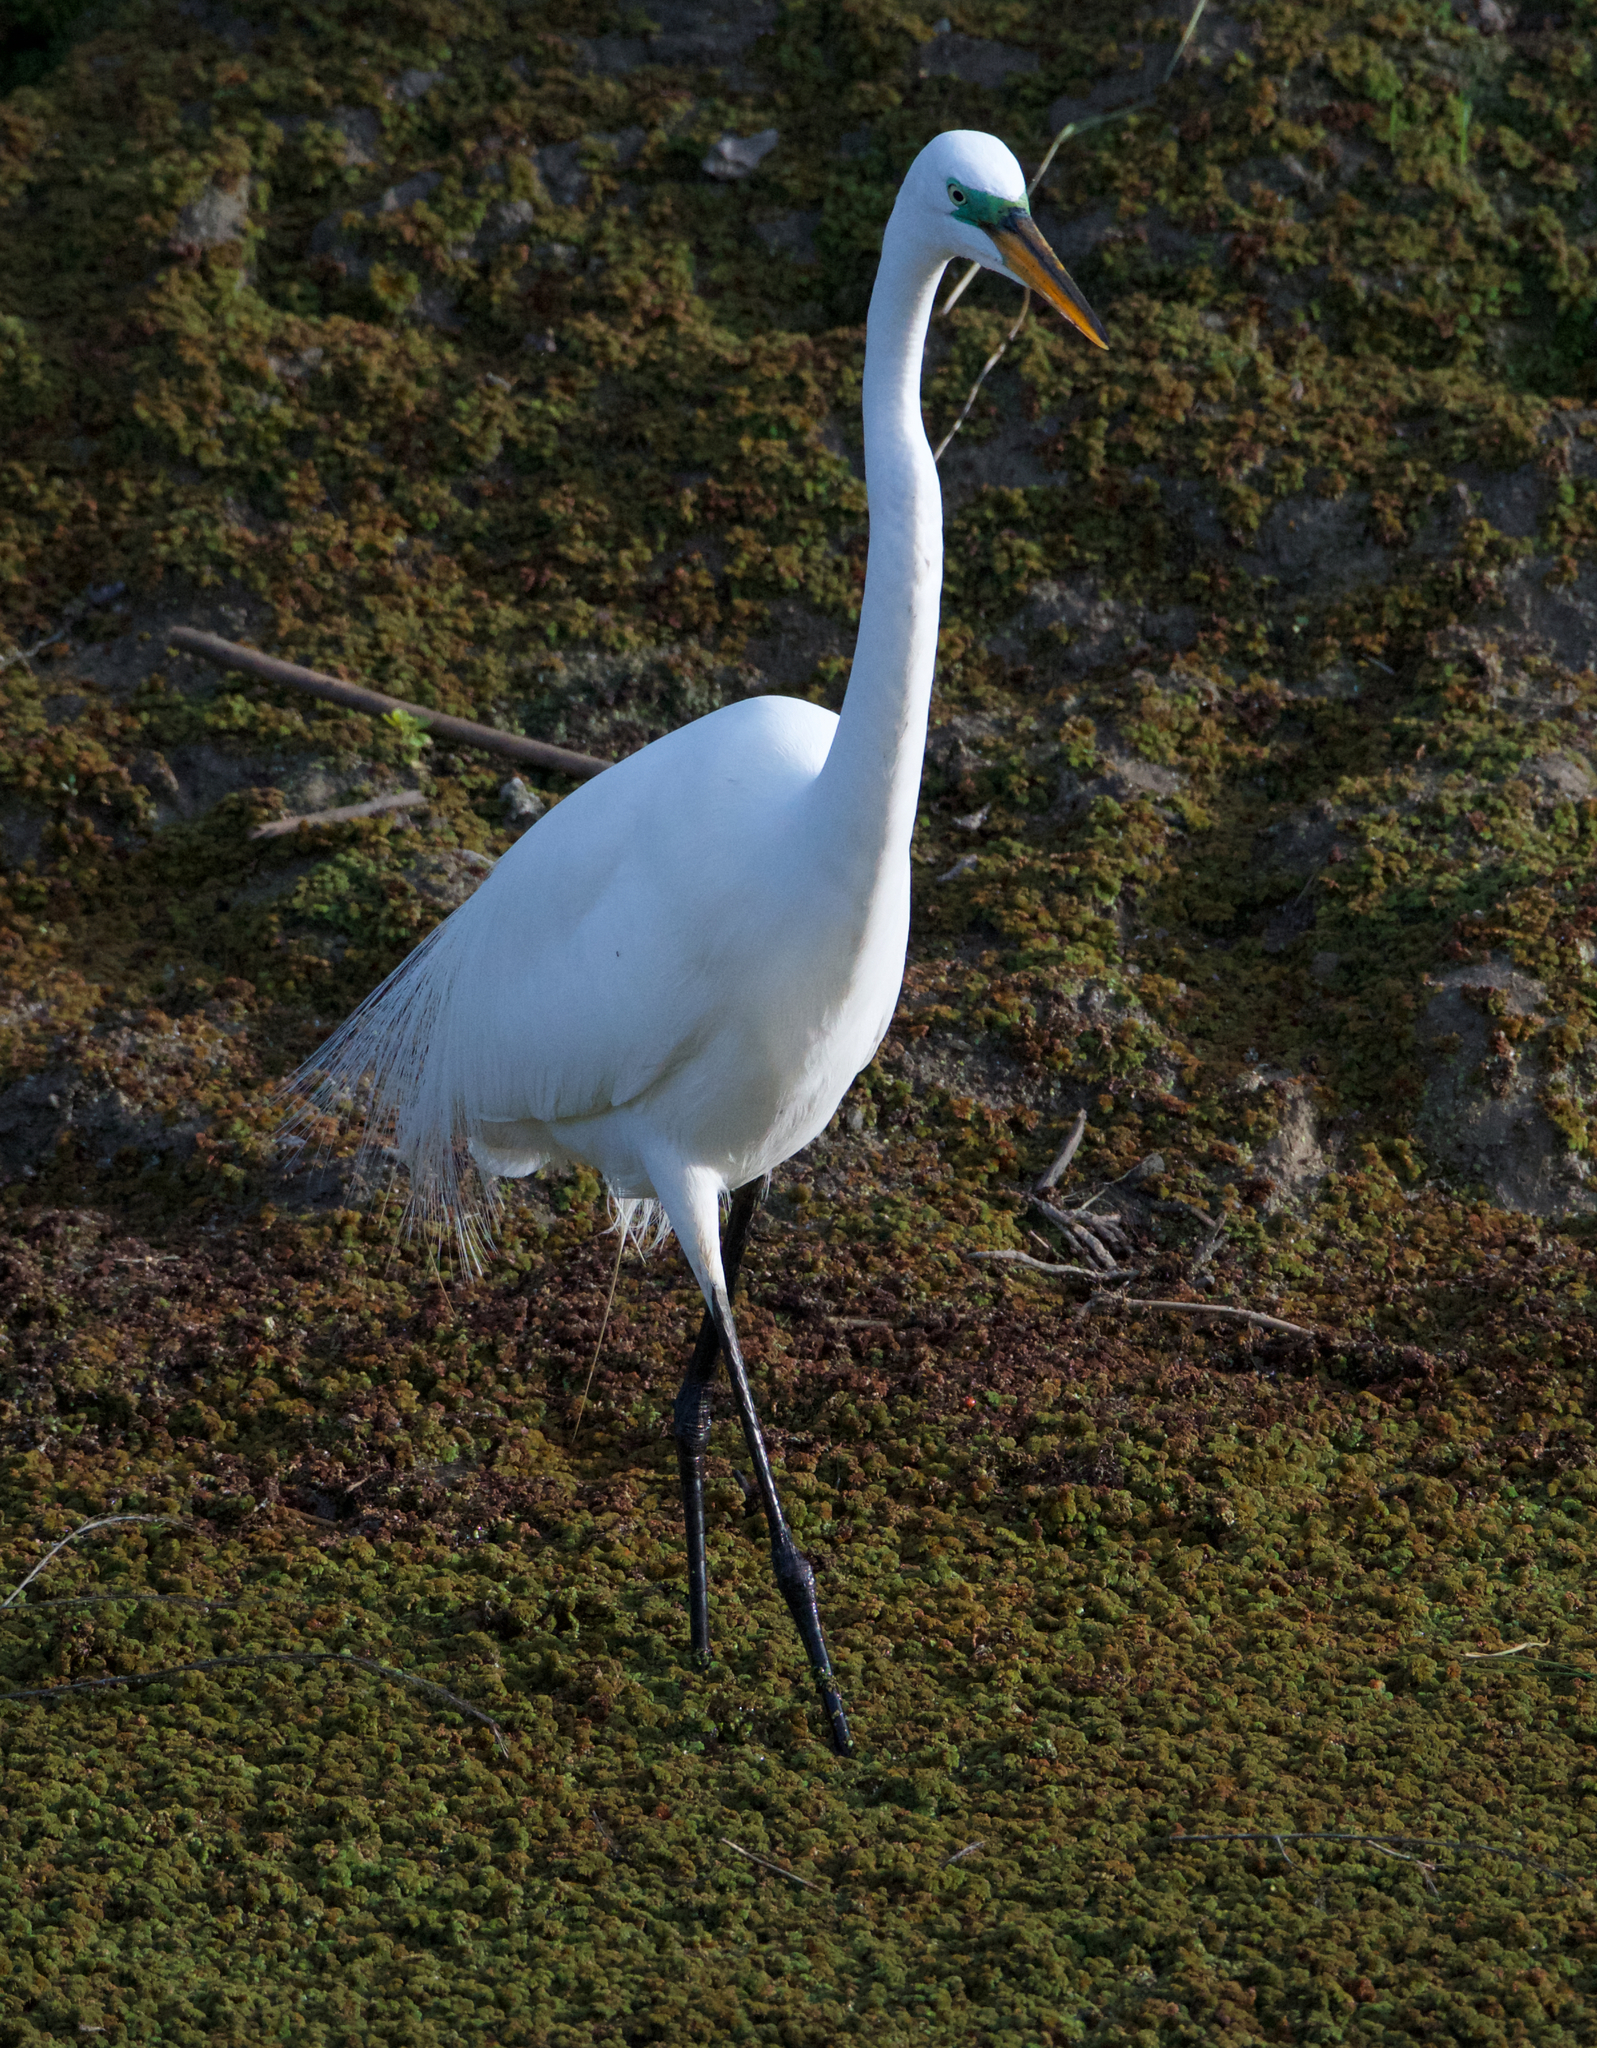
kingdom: Animalia
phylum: Chordata
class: Aves
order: Pelecaniformes
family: Ardeidae
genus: Ardea
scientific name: Ardea alba
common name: Great egret
